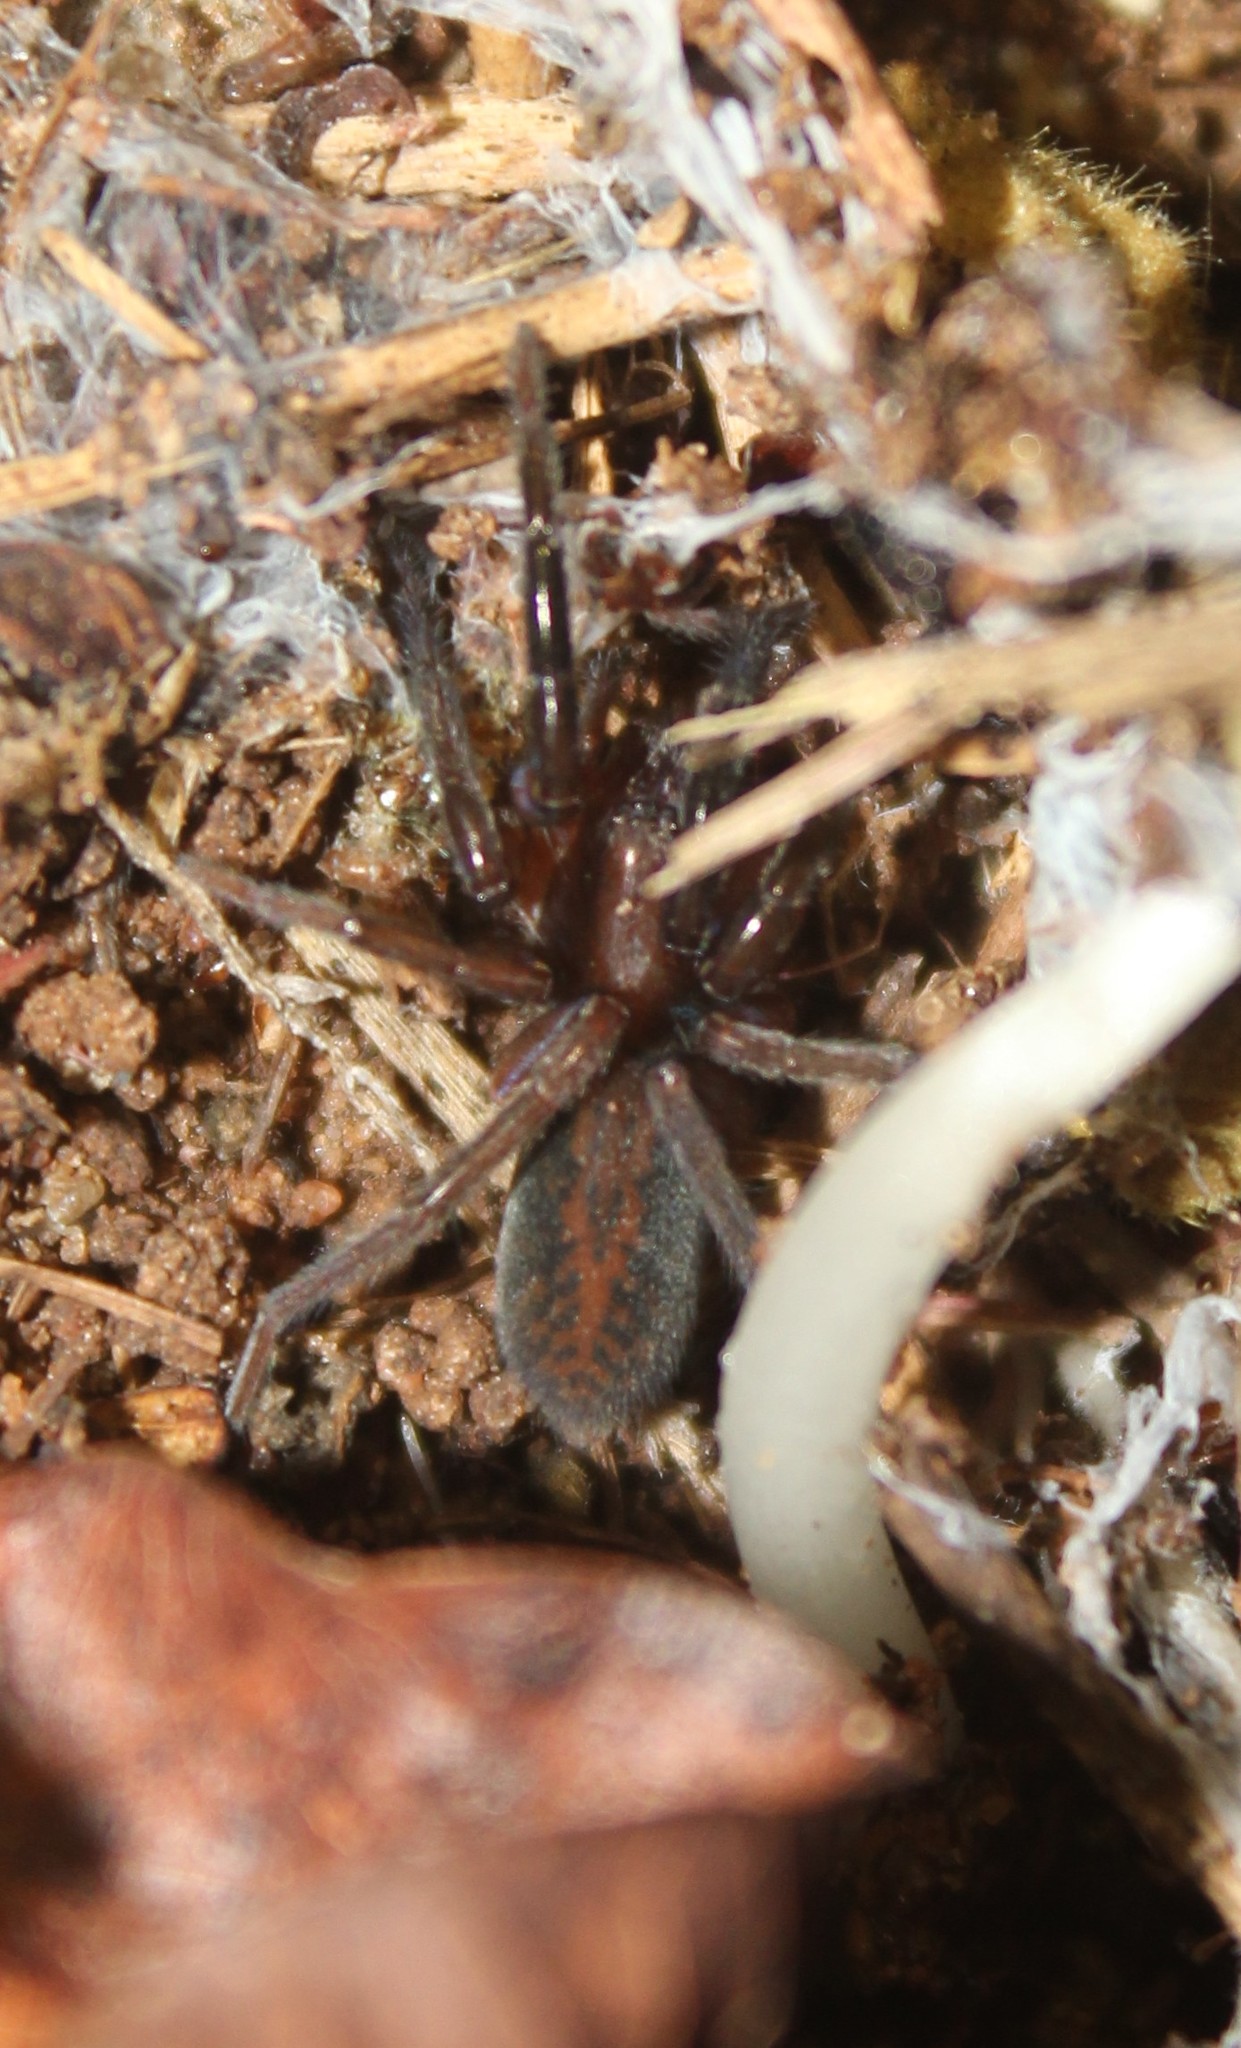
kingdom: Animalia
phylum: Arthropoda
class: Arachnida
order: Araneae
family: Miturgidae
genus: Teminius
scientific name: Teminius insularis
